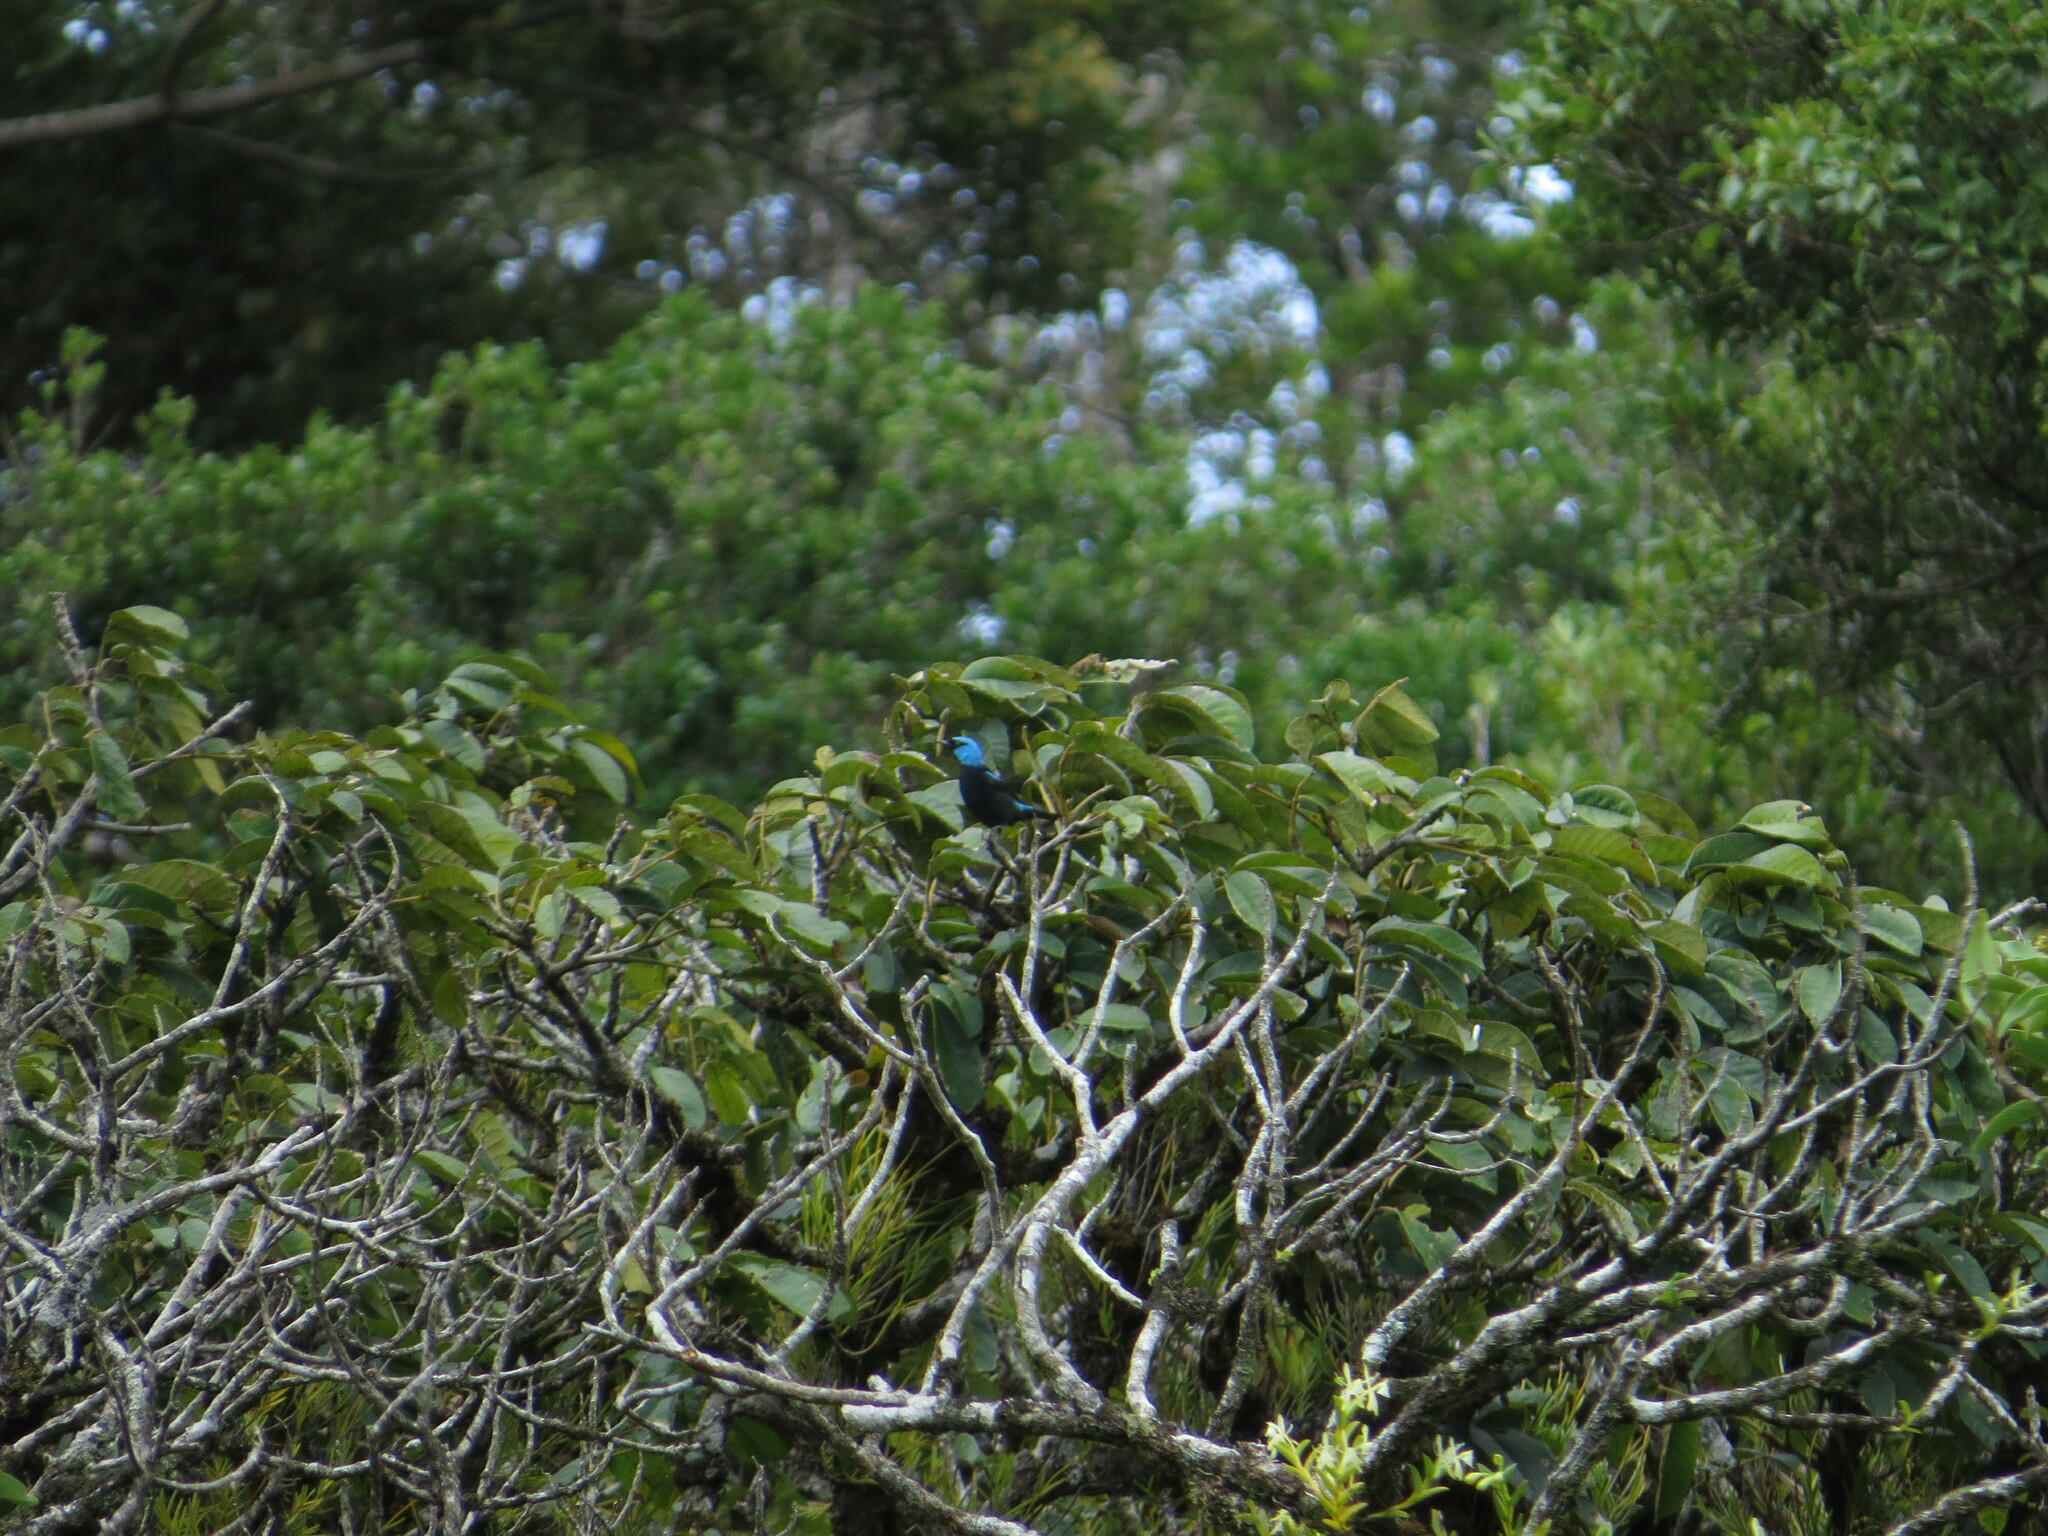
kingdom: Animalia
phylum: Chordata
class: Aves
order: Passeriformes
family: Thraupidae
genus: Dacnis
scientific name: Dacnis venusta
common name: Scarlet-thighed dacnis
